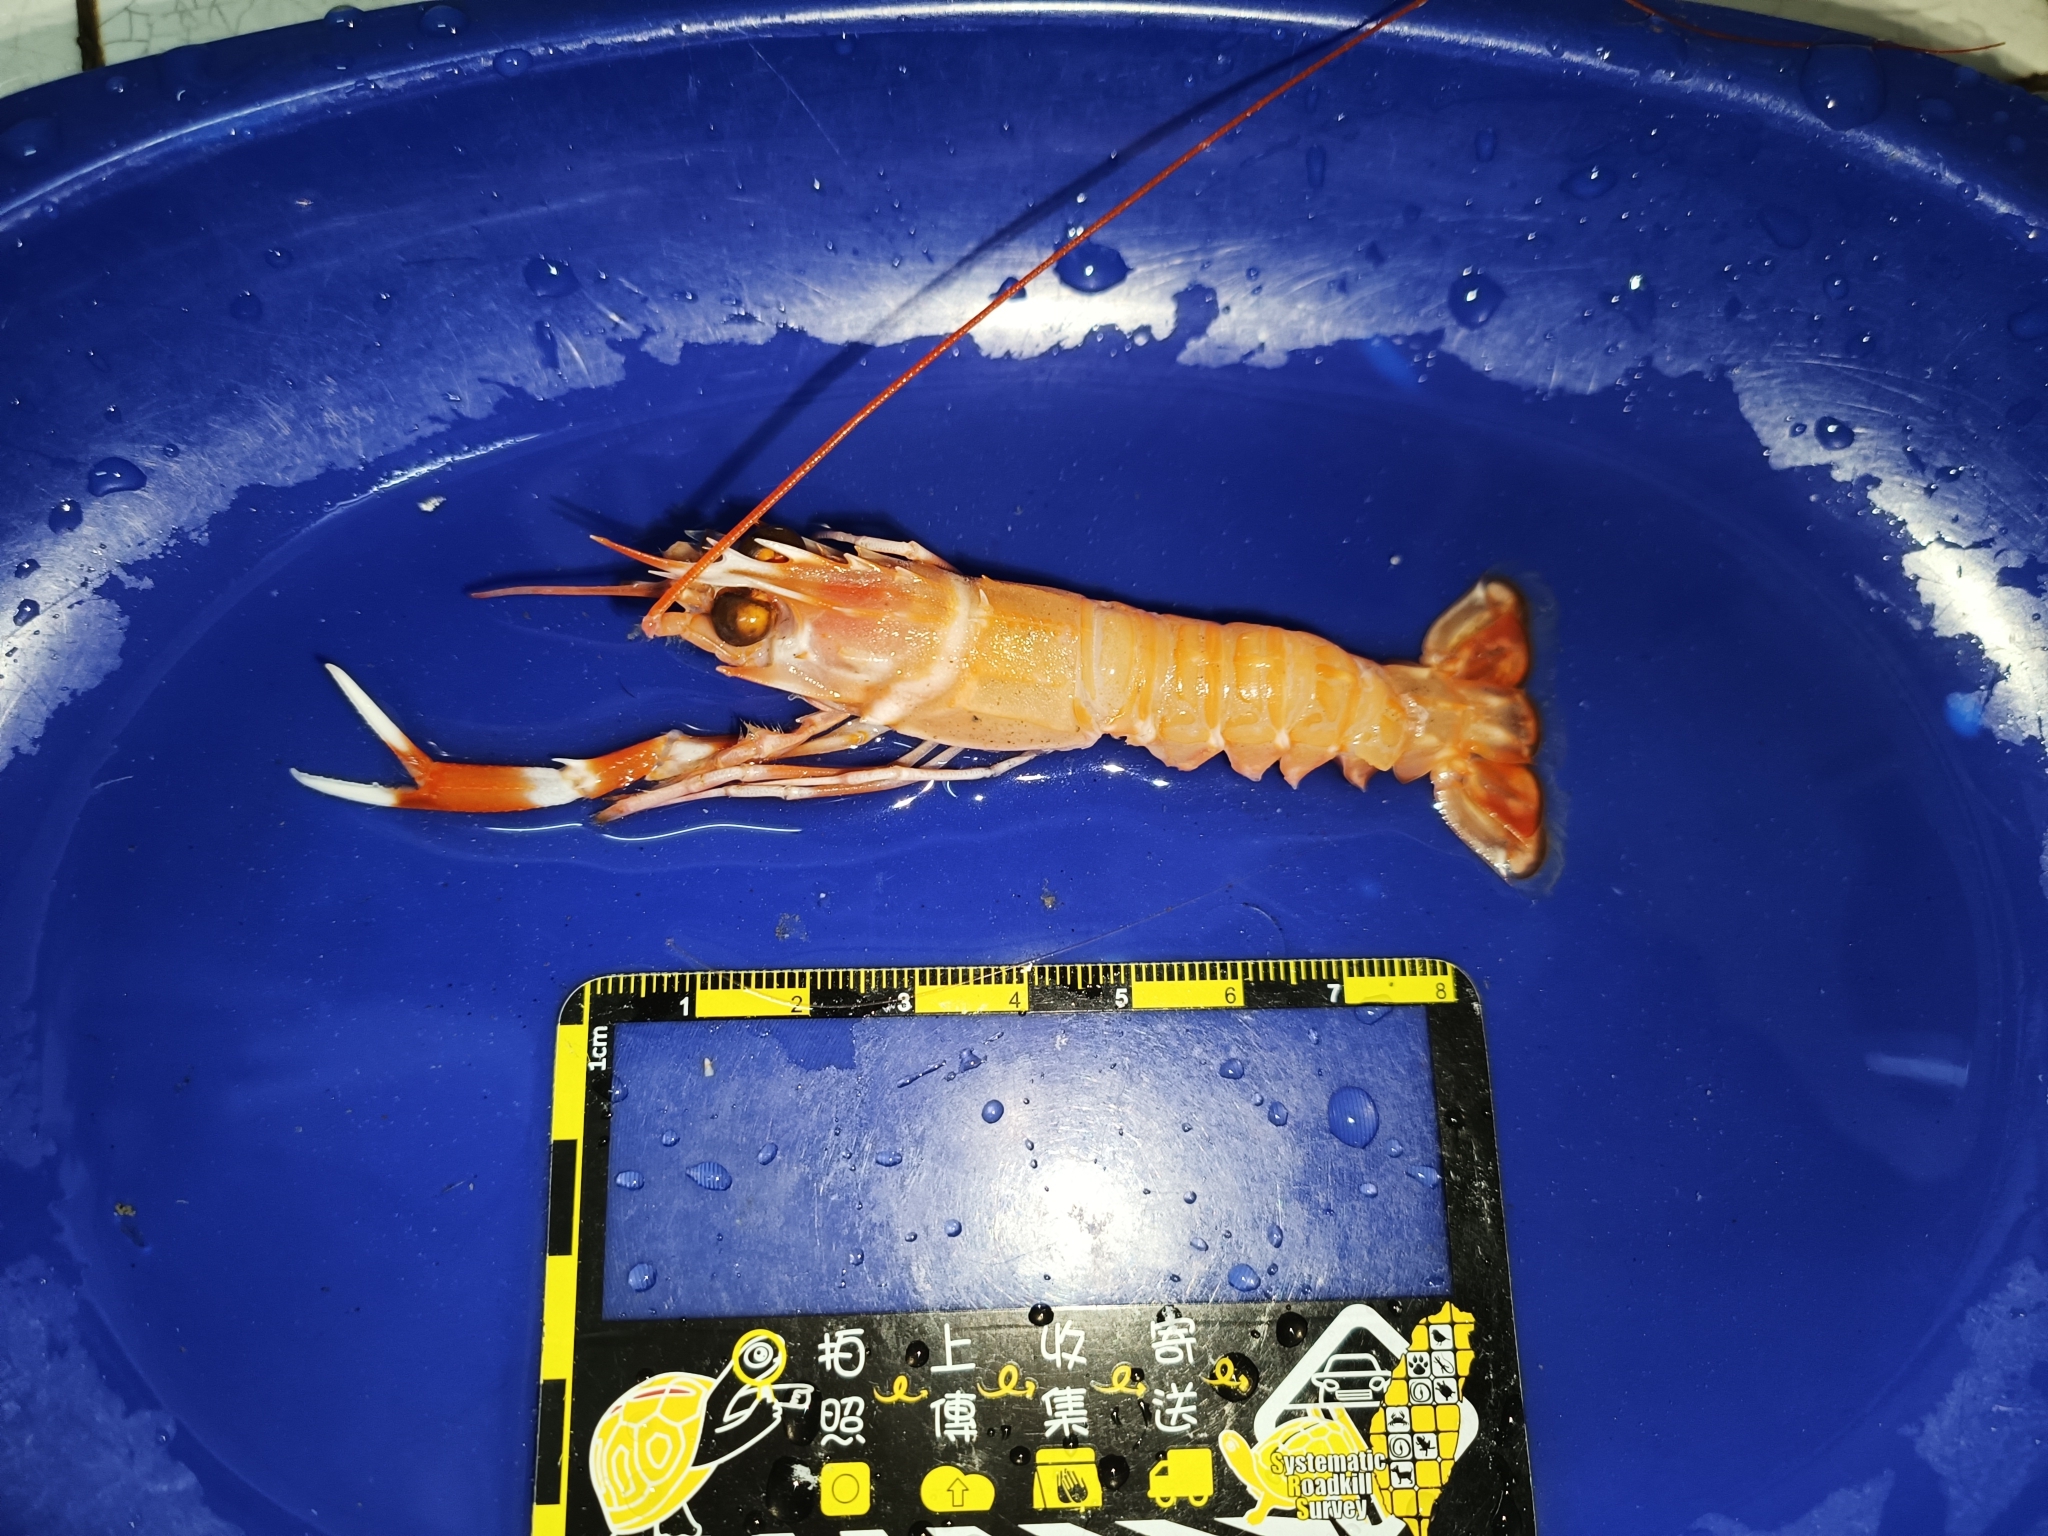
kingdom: Animalia
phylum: Arthropoda
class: Malacostraca
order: Decapoda
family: Nephropidae
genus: Metanephrops
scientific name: Metanephrops thomsoni
